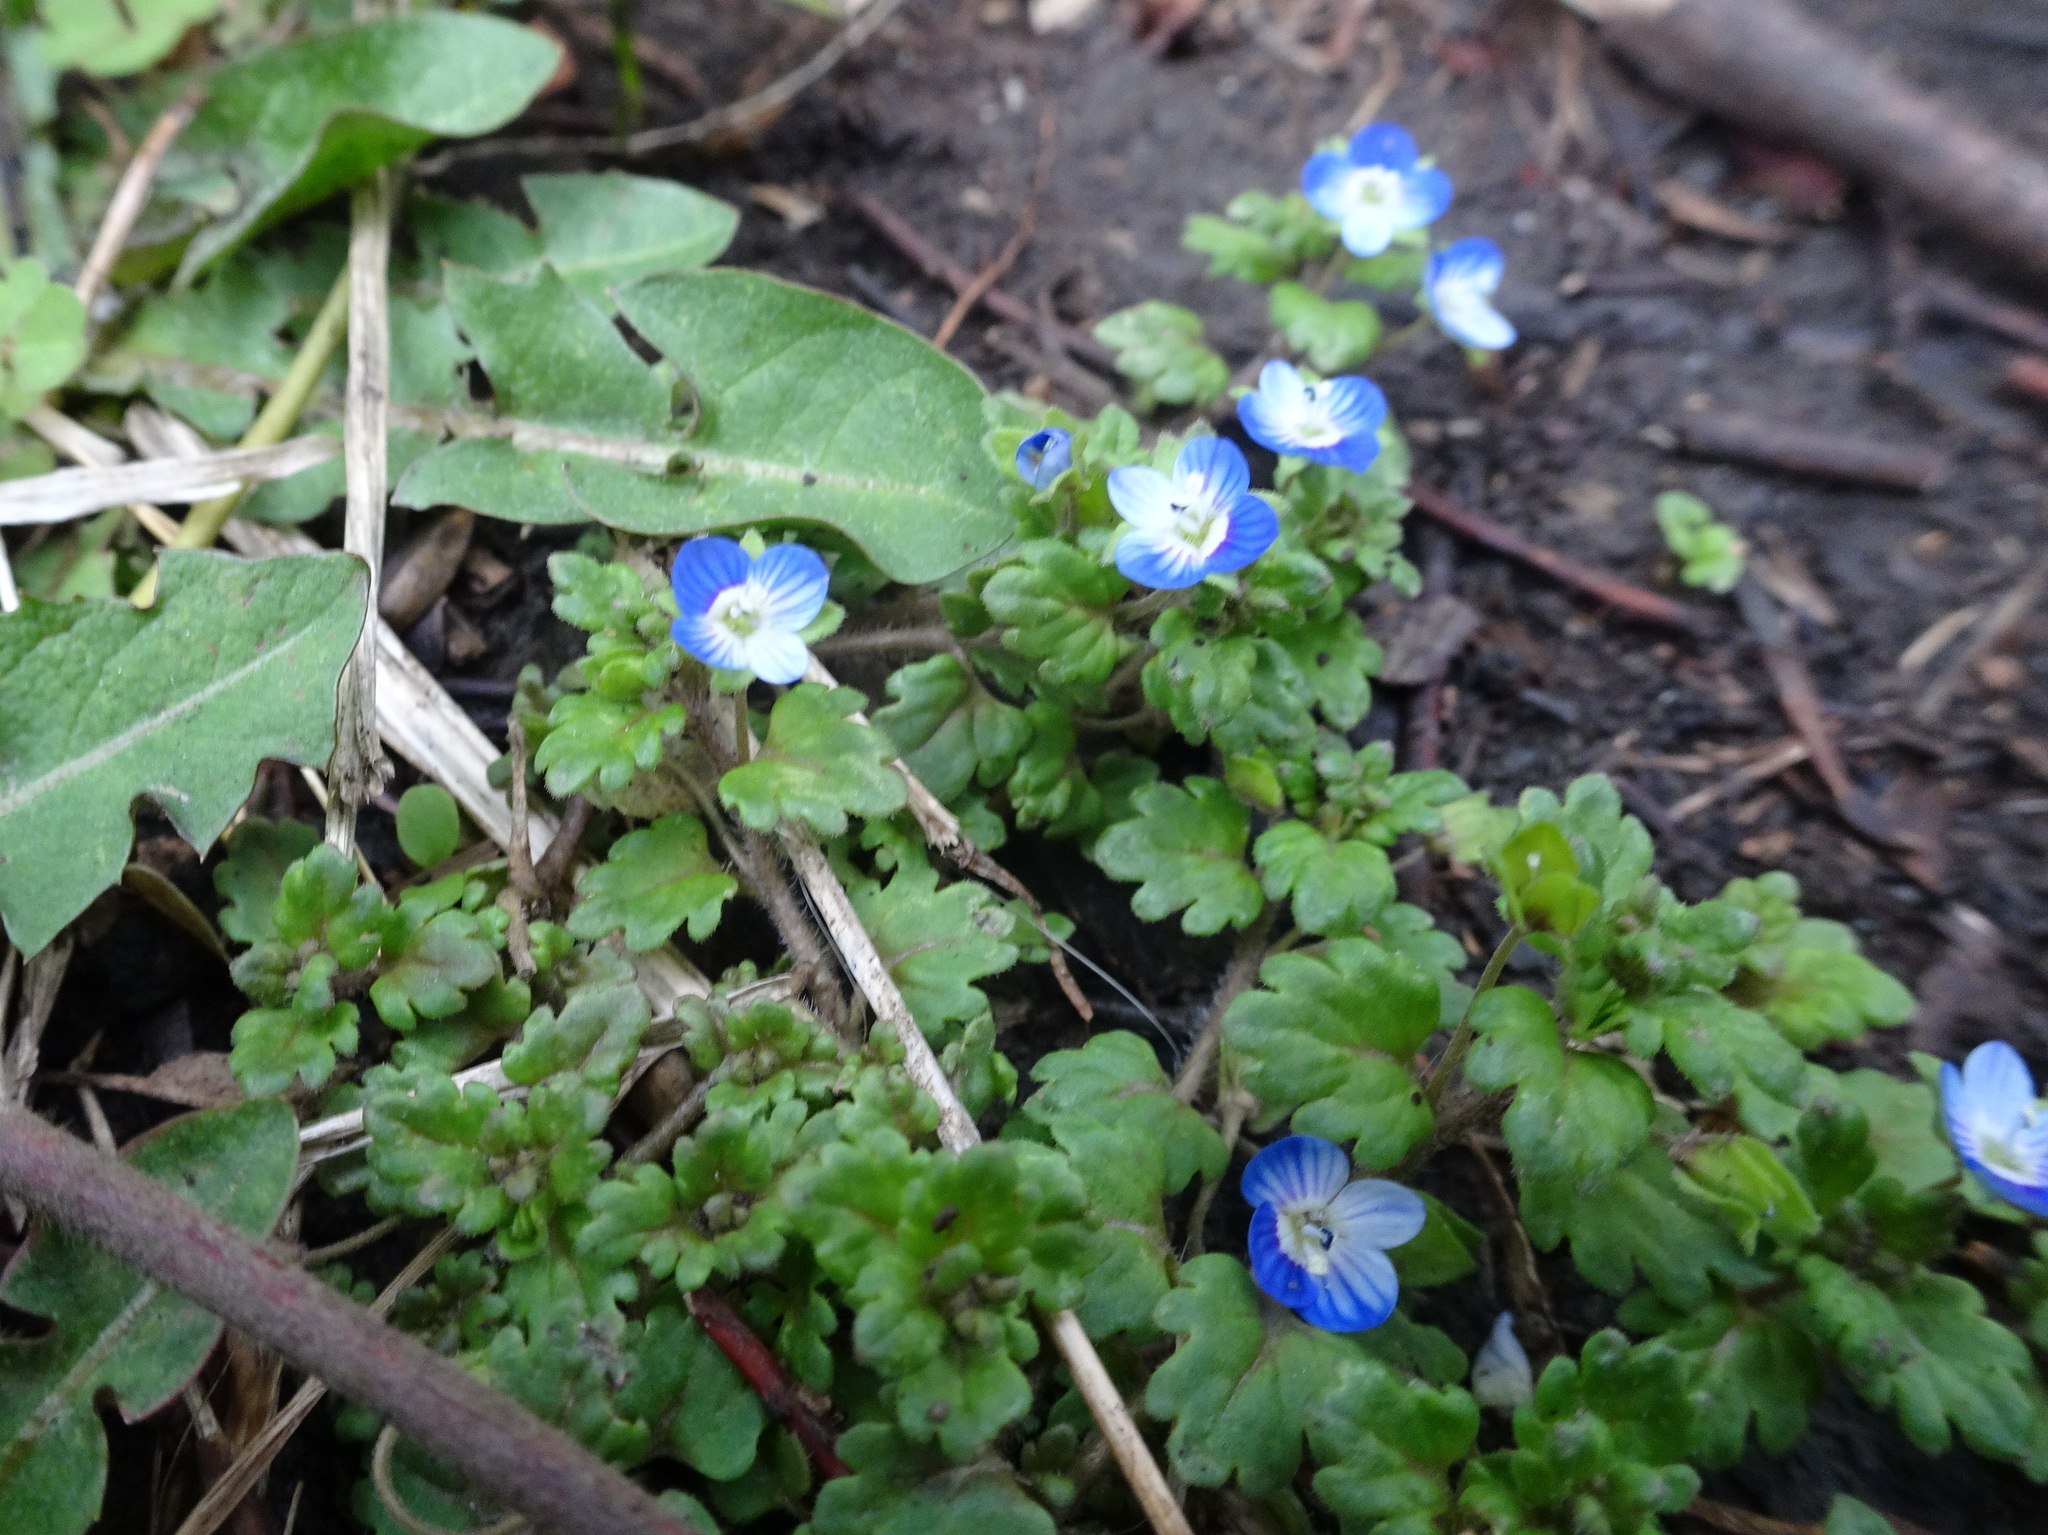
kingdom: Plantae
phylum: Tracheophyta
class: Magnoliopsida
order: Lamiales
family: Plantaginaceae
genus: Veronica
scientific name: Veronica polita
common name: Grey field-speedwell
